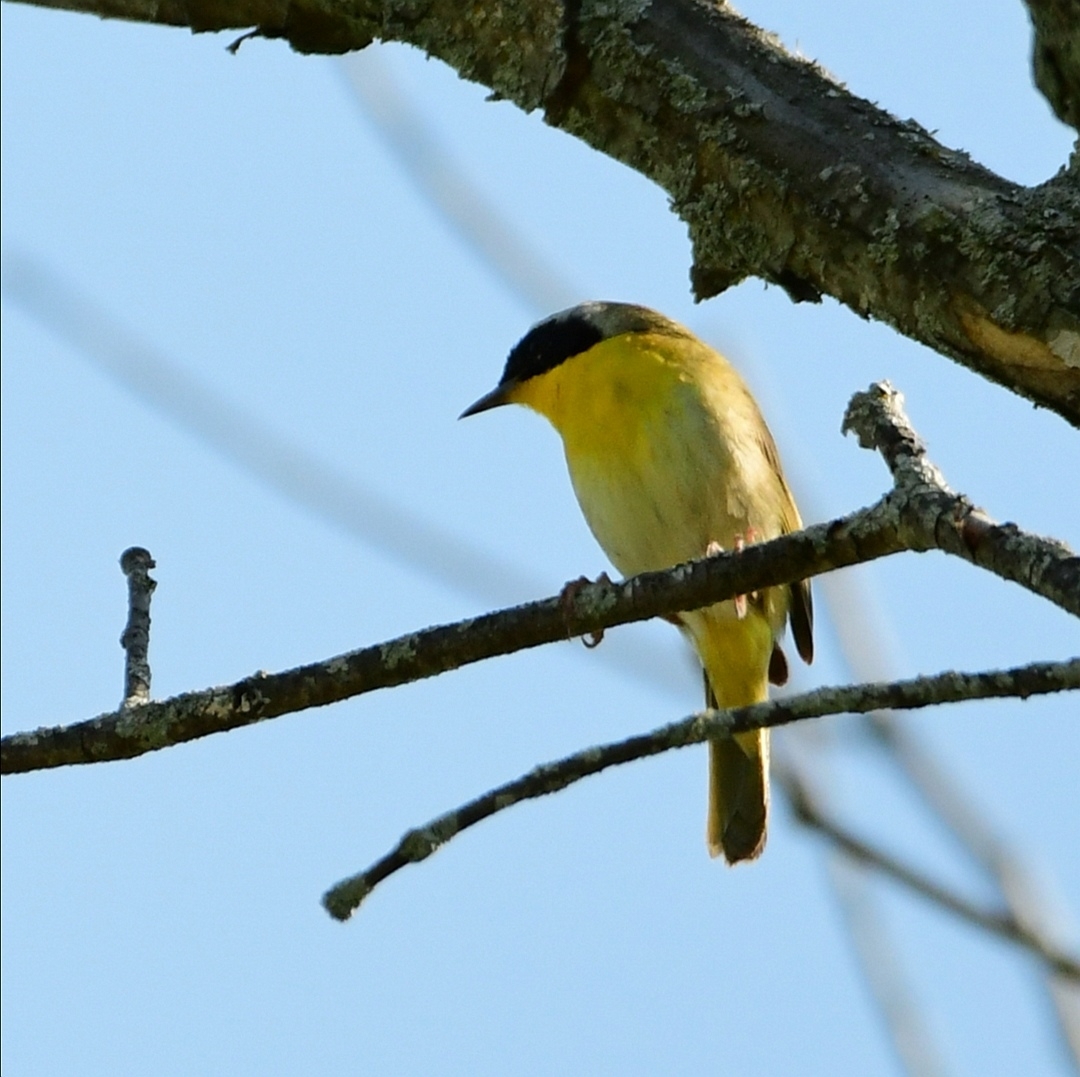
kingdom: Animalia
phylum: Chordata
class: Aves
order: Passeriformes
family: Parulidae
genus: Geothlypis
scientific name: Geothlypis trichas
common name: Common yellowthroat
